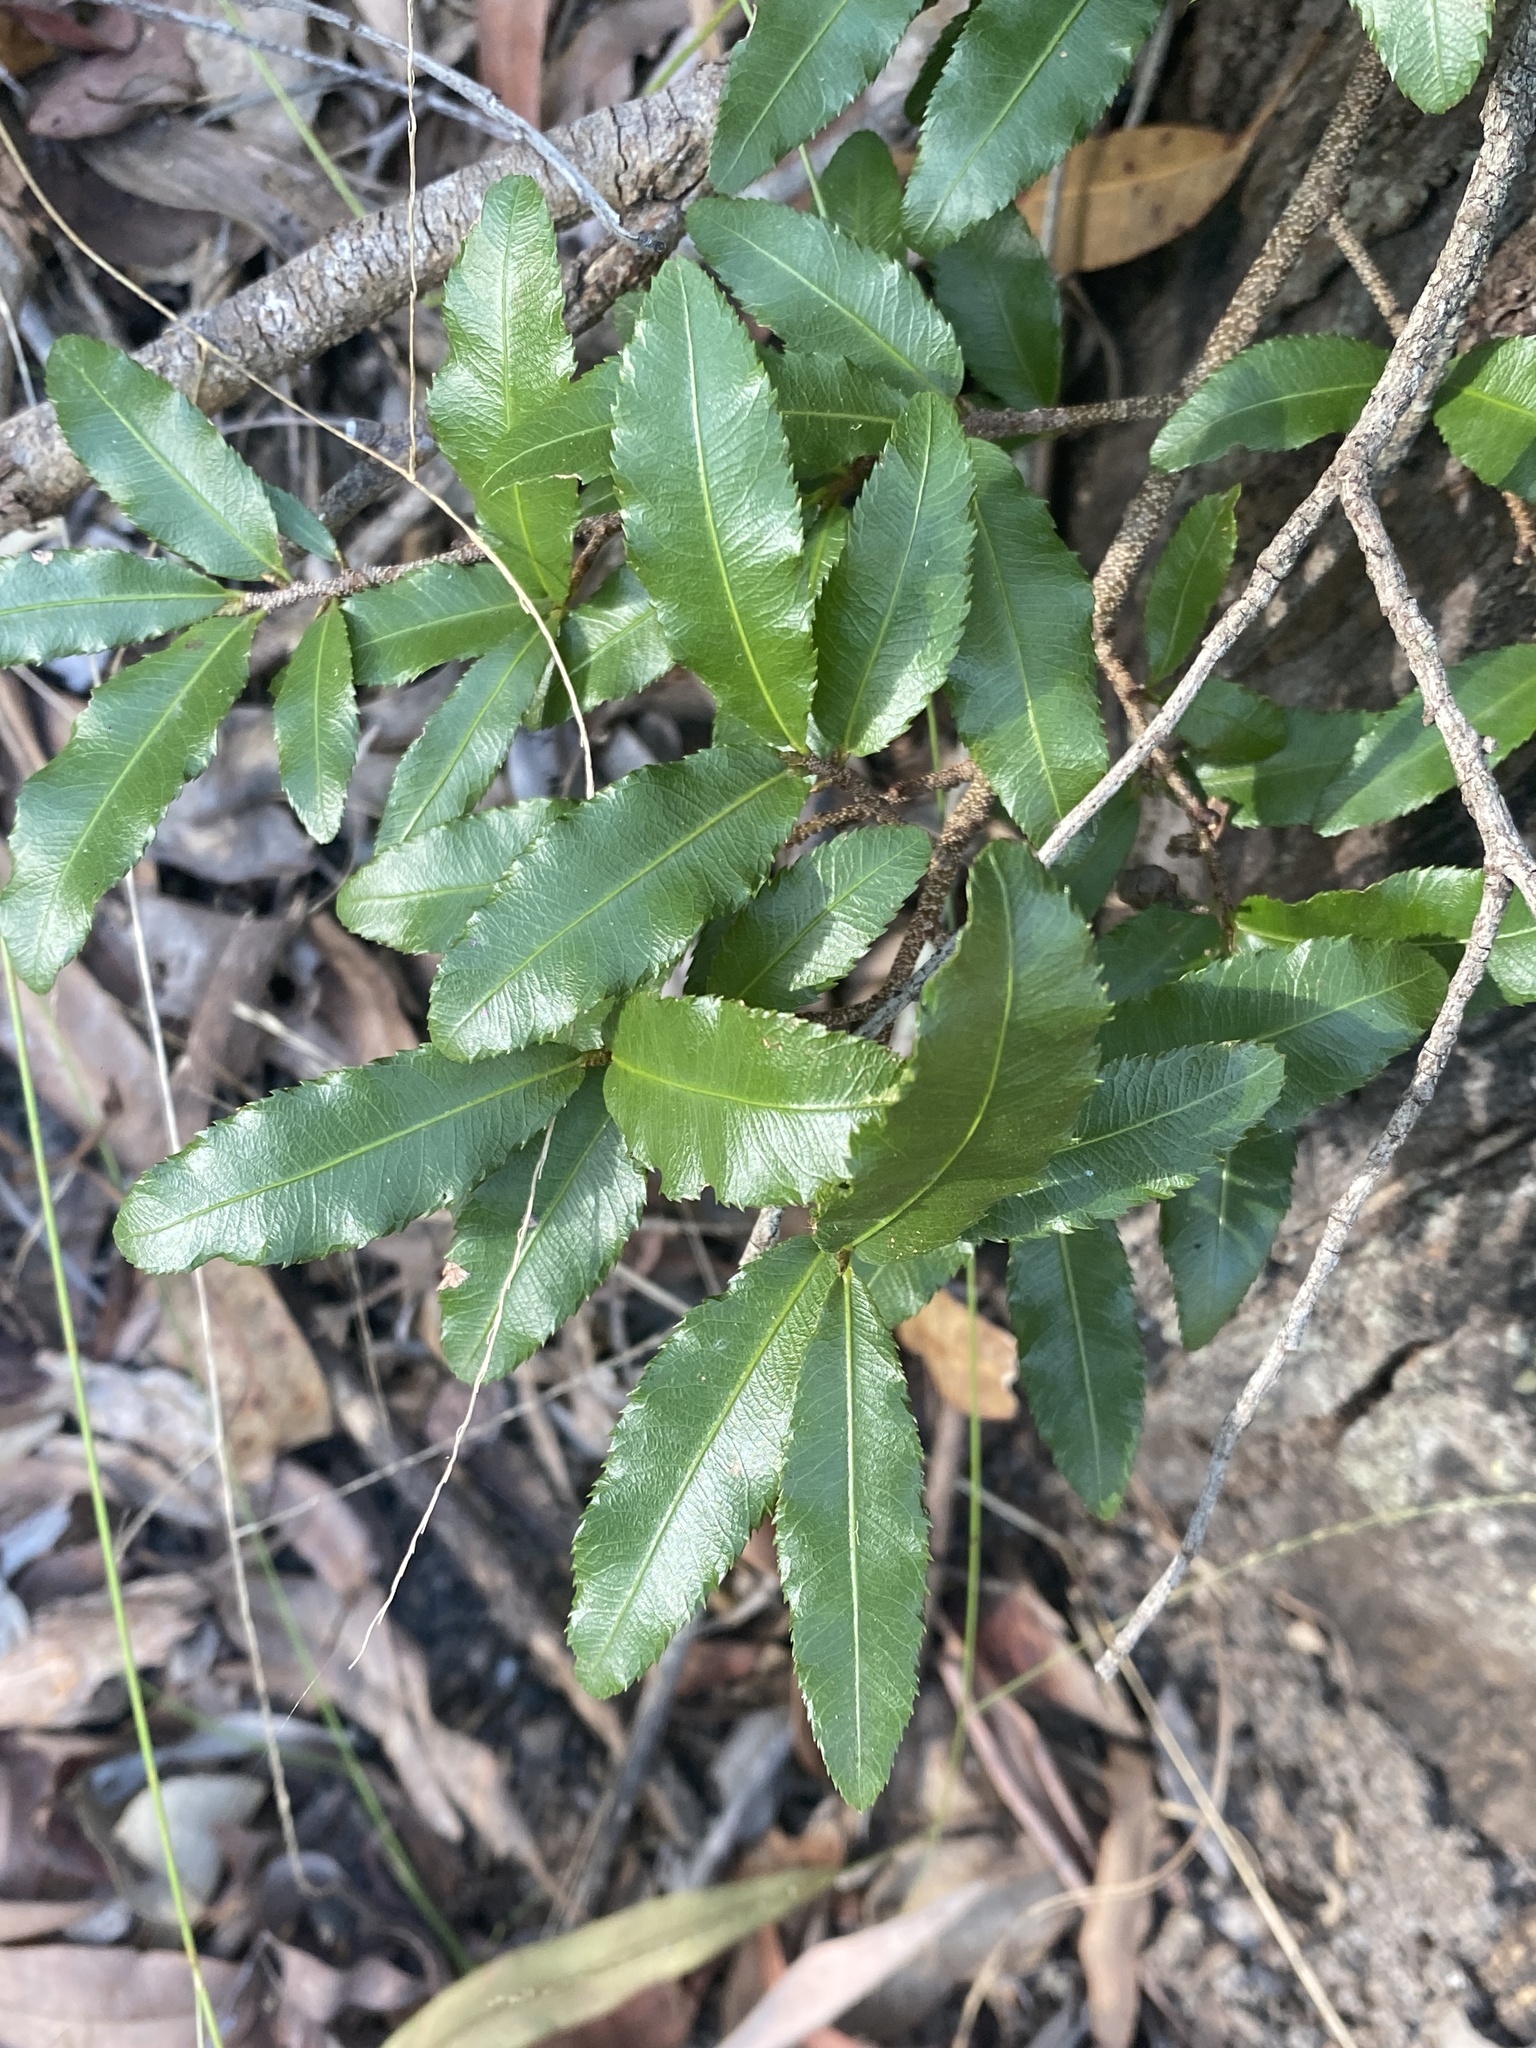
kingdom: Plantae
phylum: Tracheophyta
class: Magnoliopsida
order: Malpighiales
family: Ochnaceae
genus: Ochna
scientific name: Ochna serrulata
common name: Mickey mouse plant
